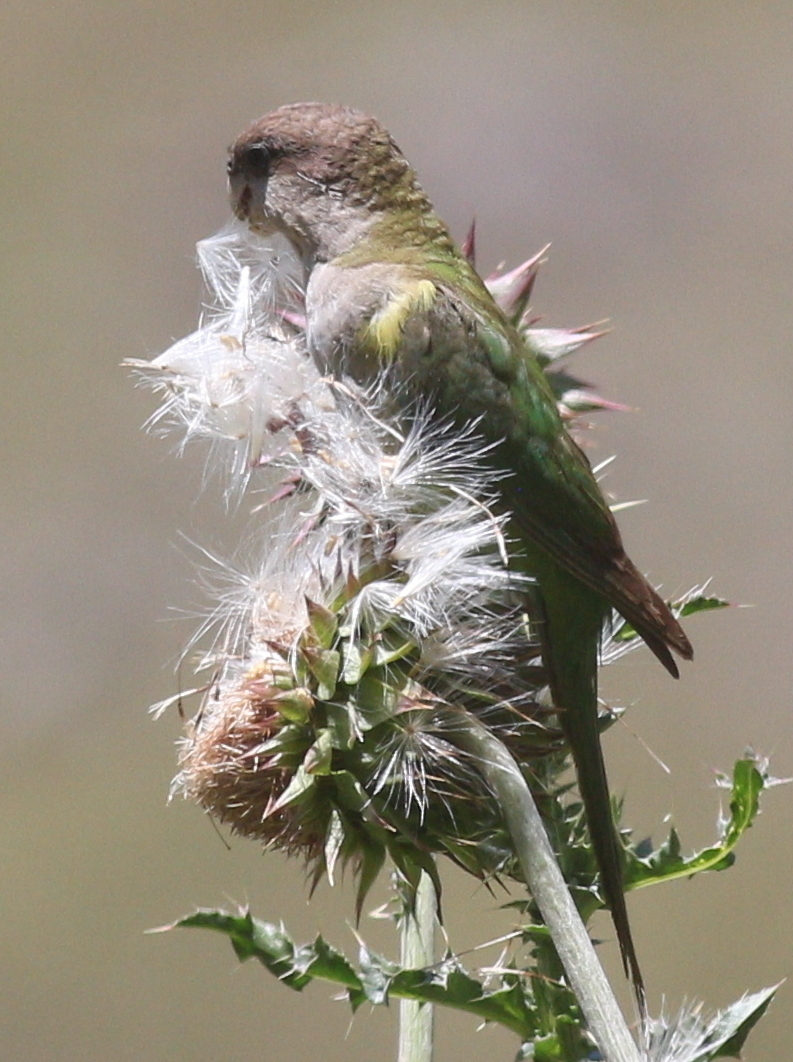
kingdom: Animalia
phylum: Chordata
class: Aves
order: Psittaciformes
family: Psittacidae
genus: Psilopsiagon
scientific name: Psilopsiagon aymara
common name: Grey-hooded parakeet
